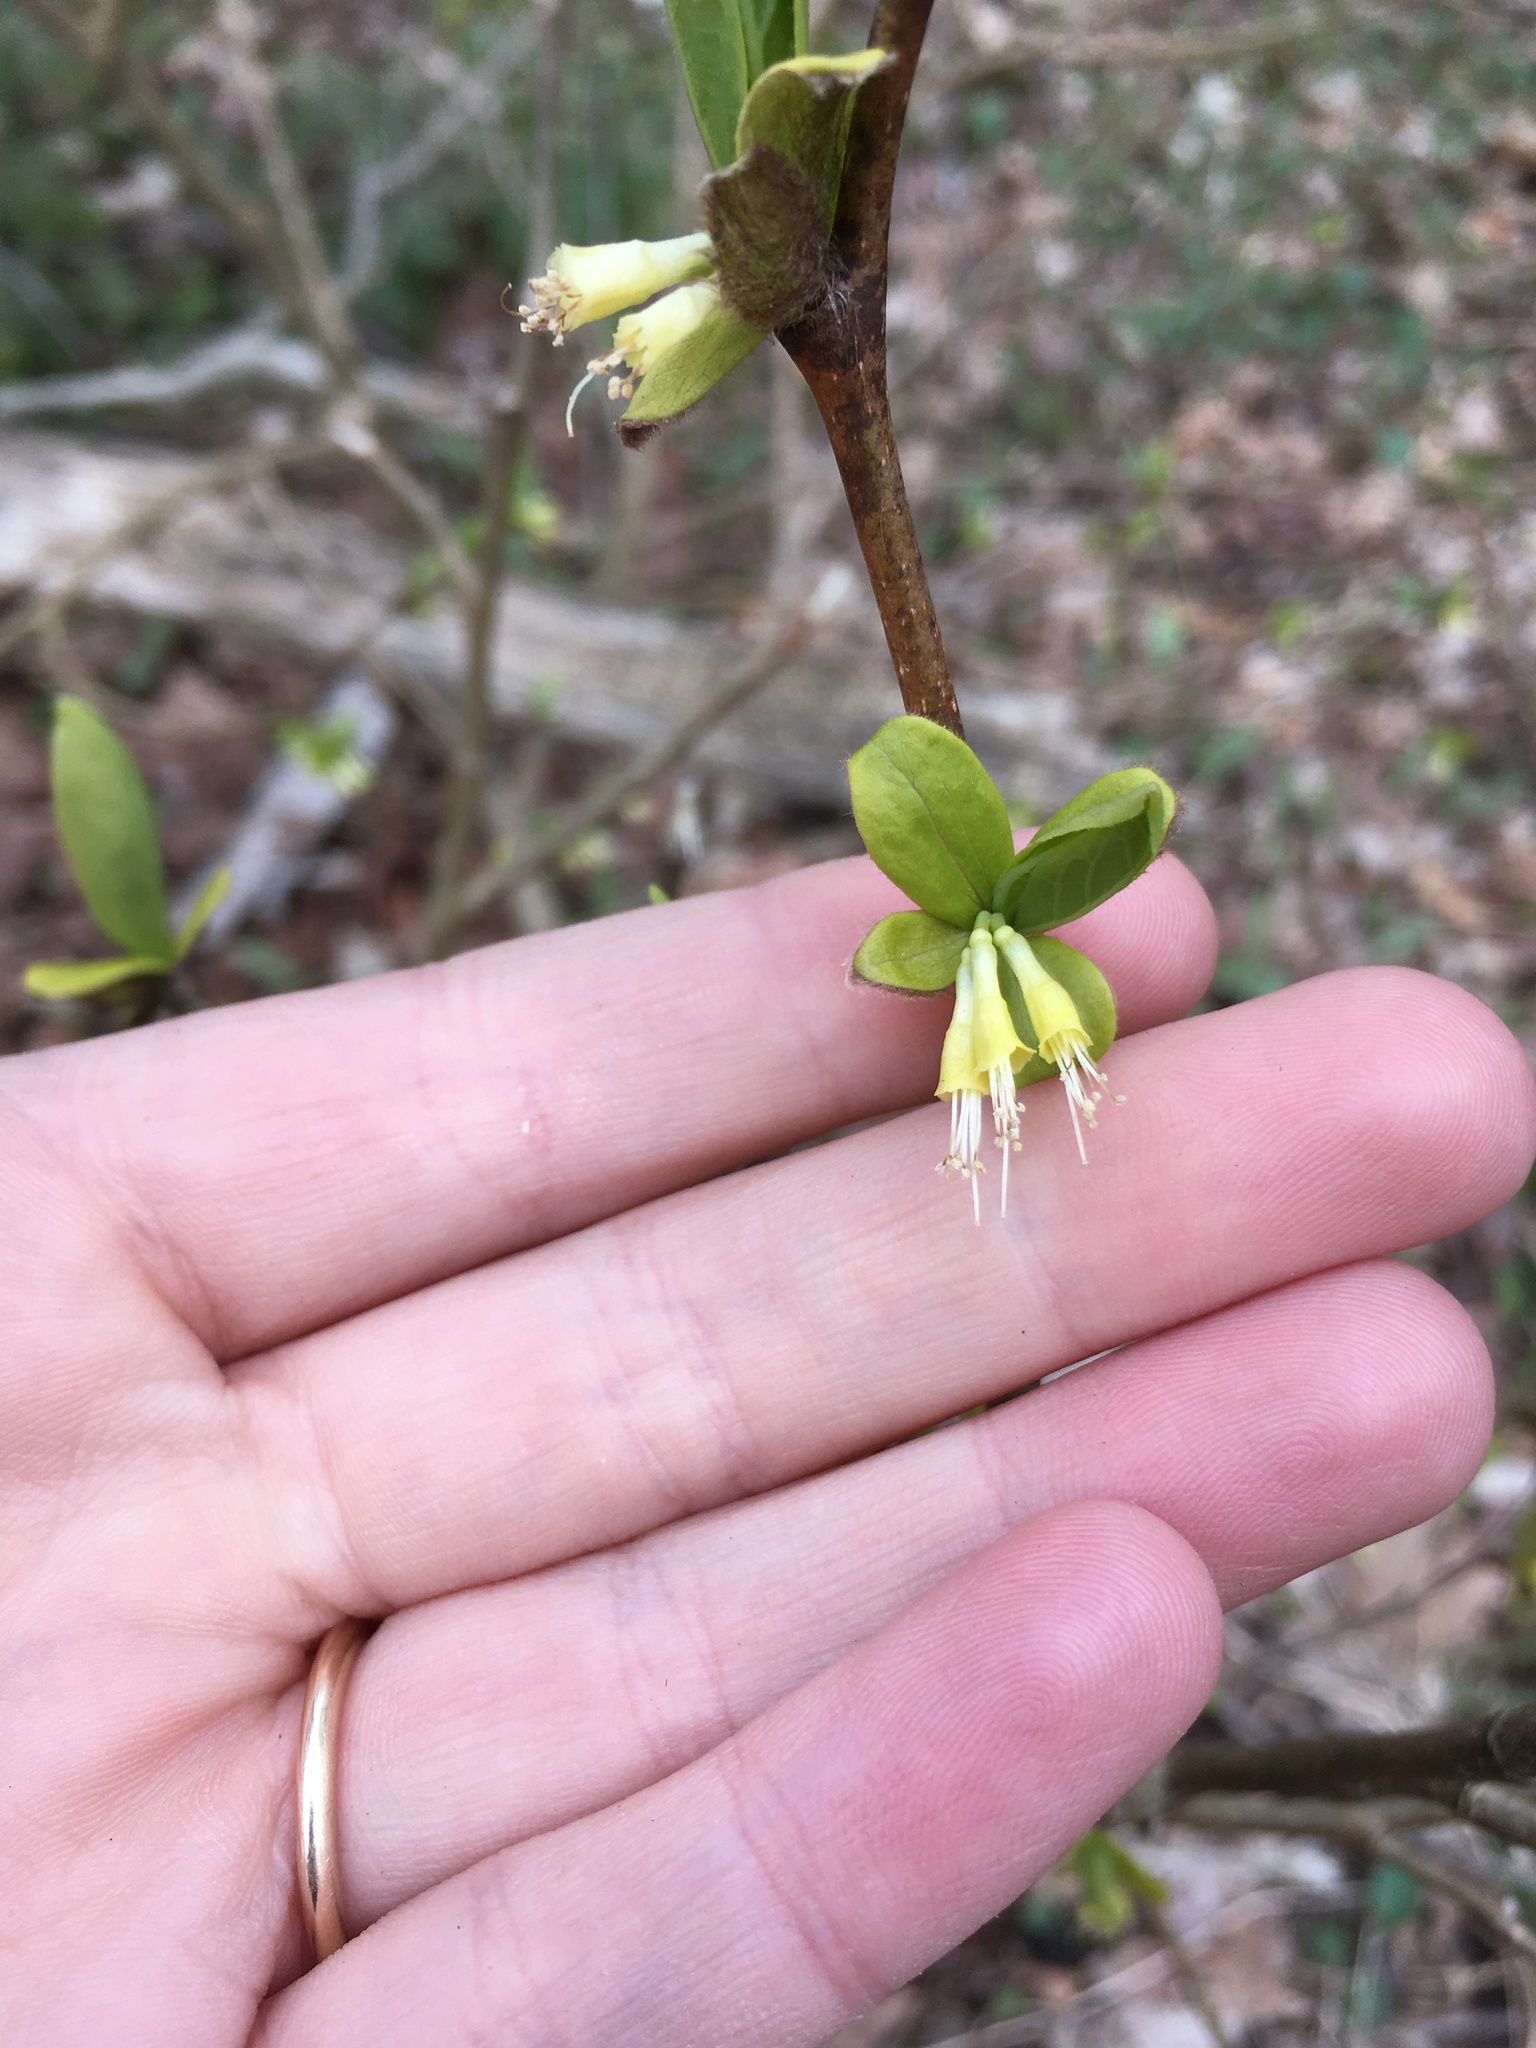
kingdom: Plantae
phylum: Tracheophyta
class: Magnoliopsida
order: Malvales
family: Thymelaeaceae
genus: Dirca
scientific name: Dirca palustris
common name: Leatherwood
